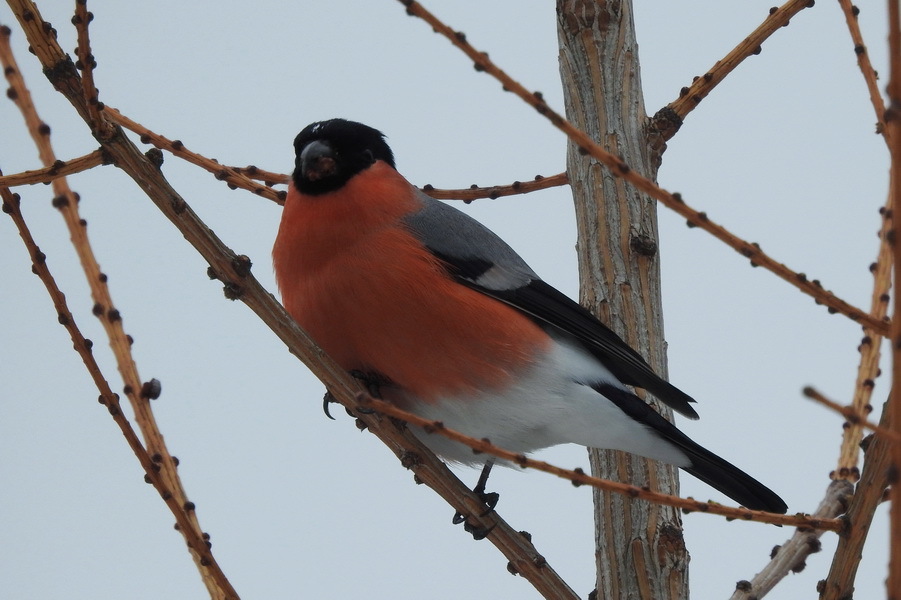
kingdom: Animalia
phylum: Chordata
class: Aves
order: Passeriformes
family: Fringillidae
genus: Pyrrhula
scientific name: Pyrrhula pyrrhula
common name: Eurasian bullfinch
